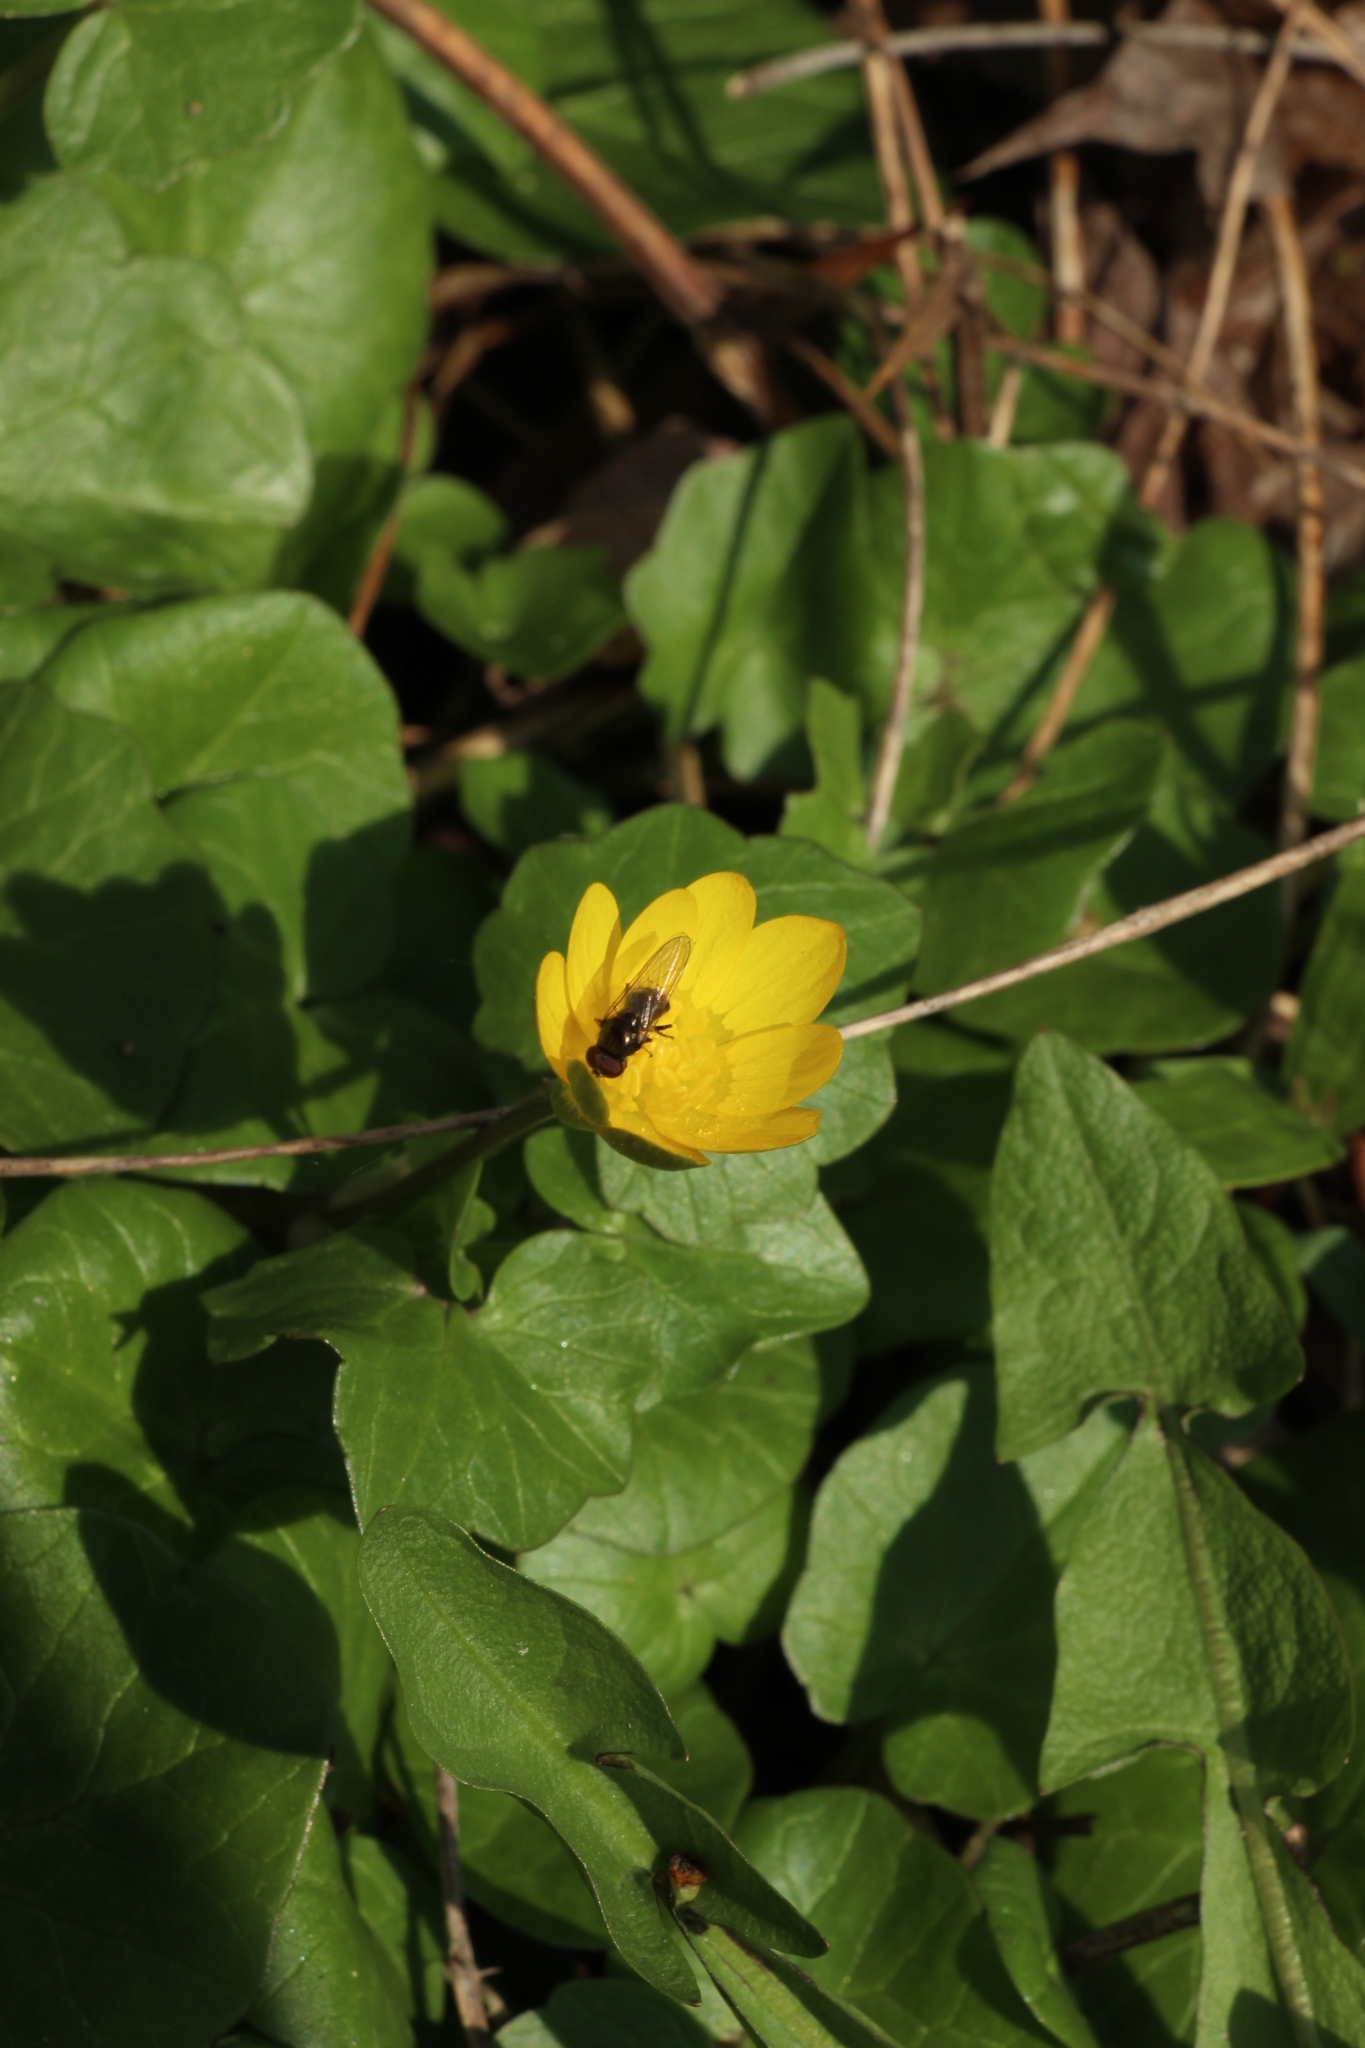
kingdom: Plantae
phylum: Tracheophyta
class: Magnoliopsida
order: Ranunculales
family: Ranunculaceae
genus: Ficaria
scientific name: Ficaria verna
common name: Lesser celandine
